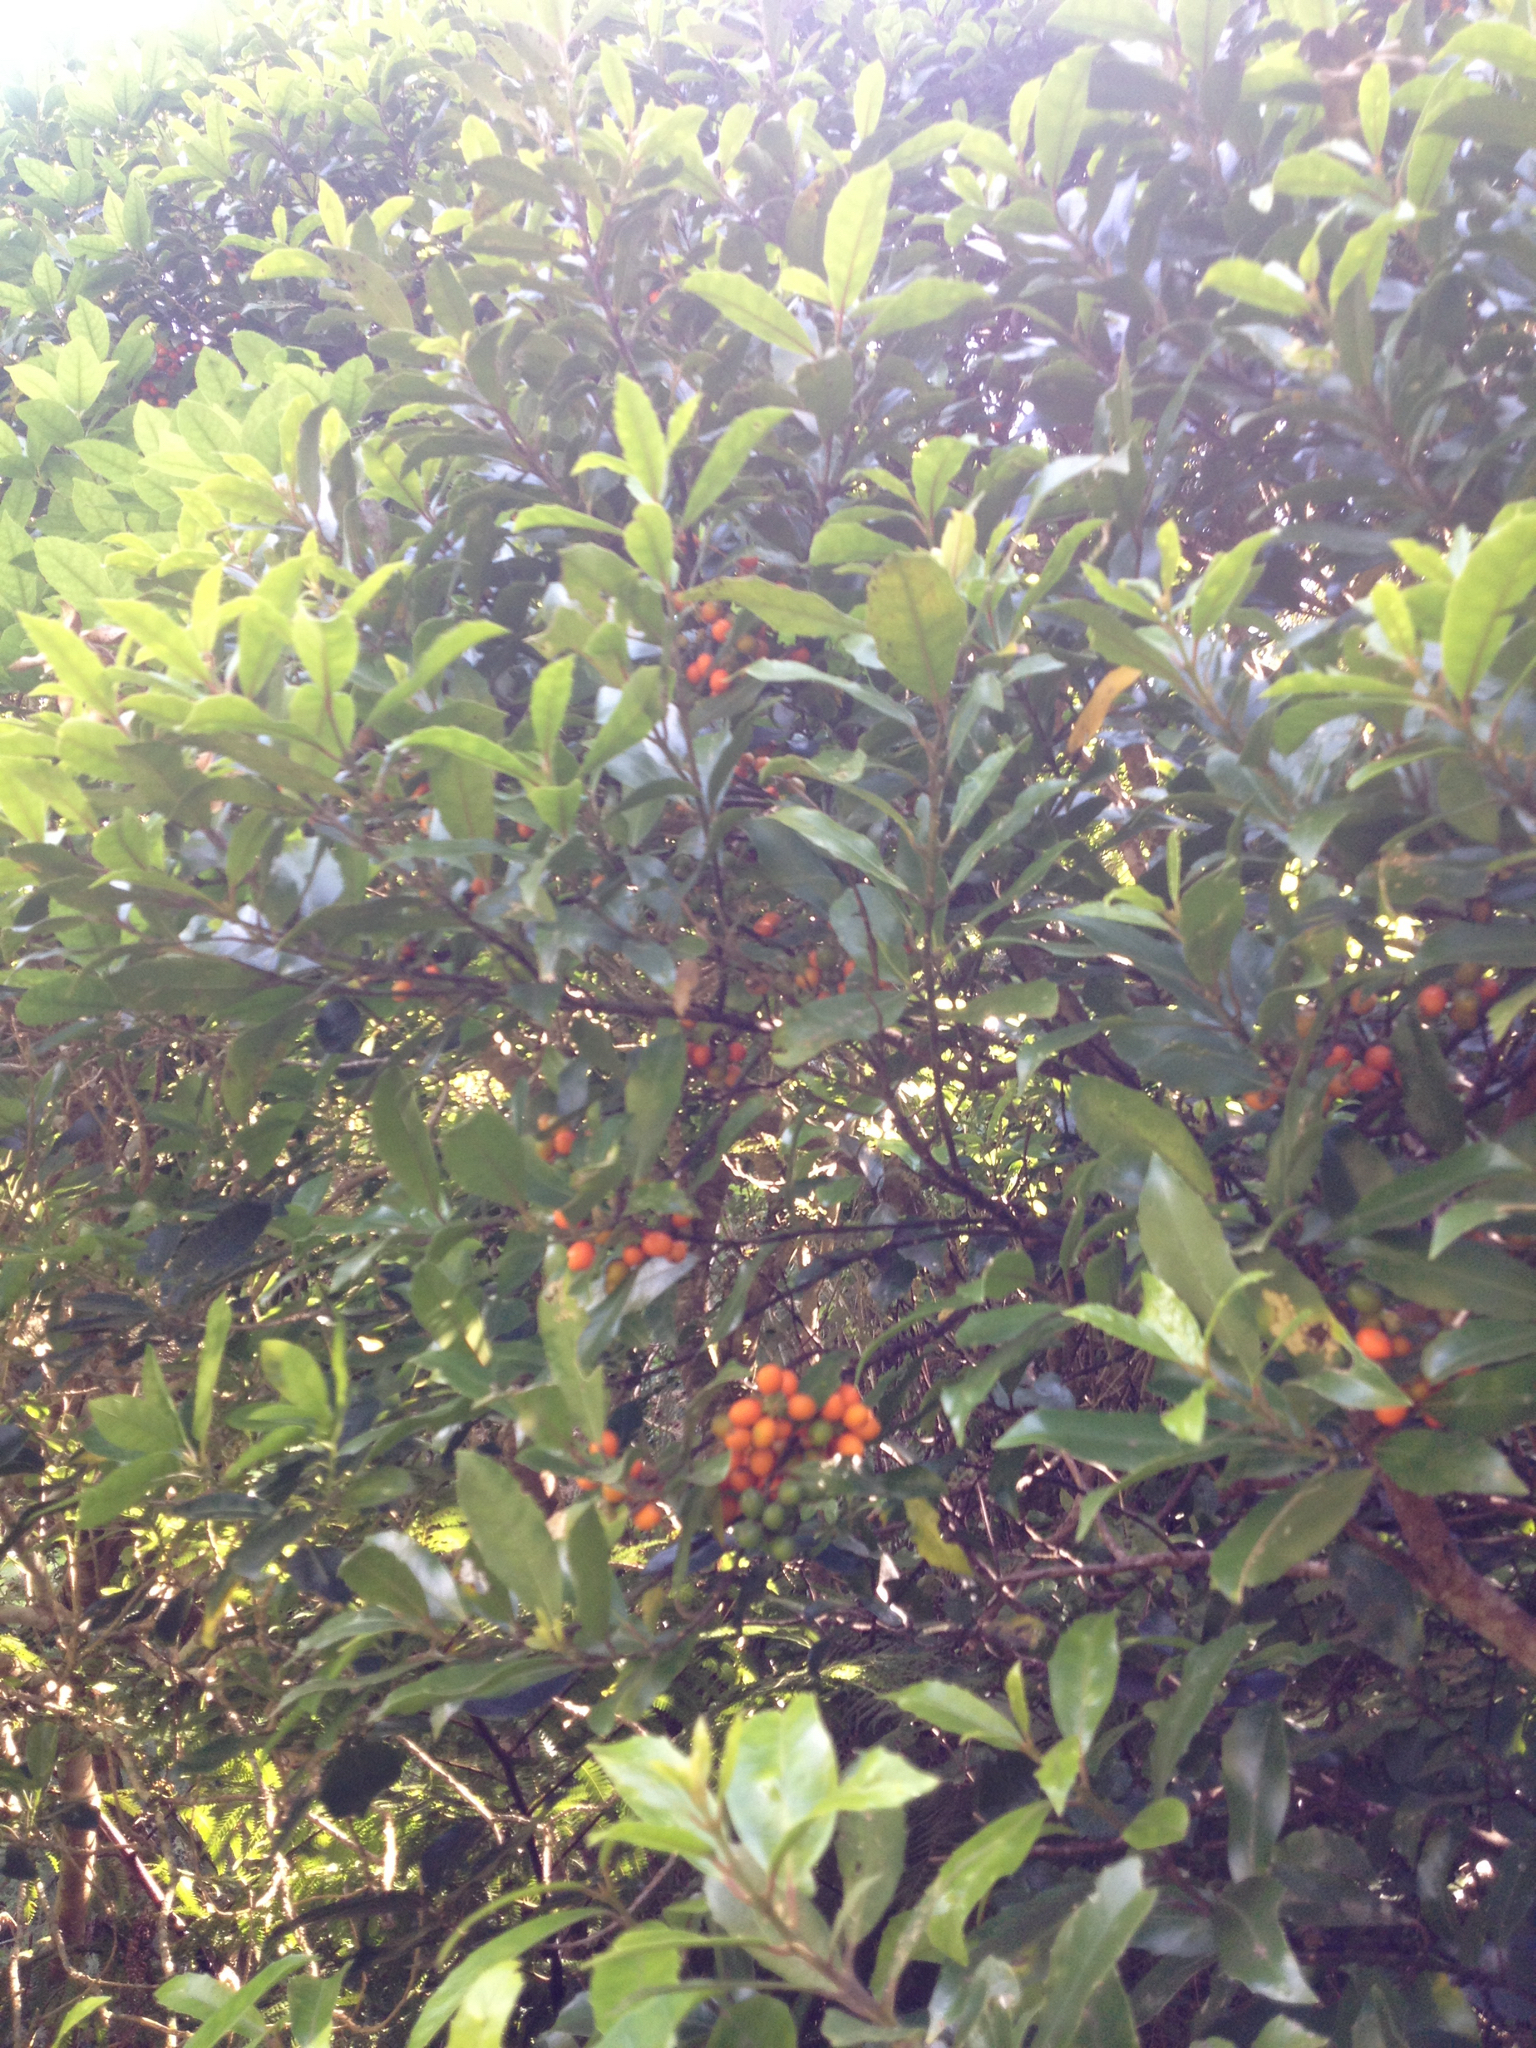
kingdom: Plantae
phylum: Tracheophyta
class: Magnoliopsida
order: Laurales
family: Monimiaceae
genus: Hedycarya
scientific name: Hedycarya arborea
